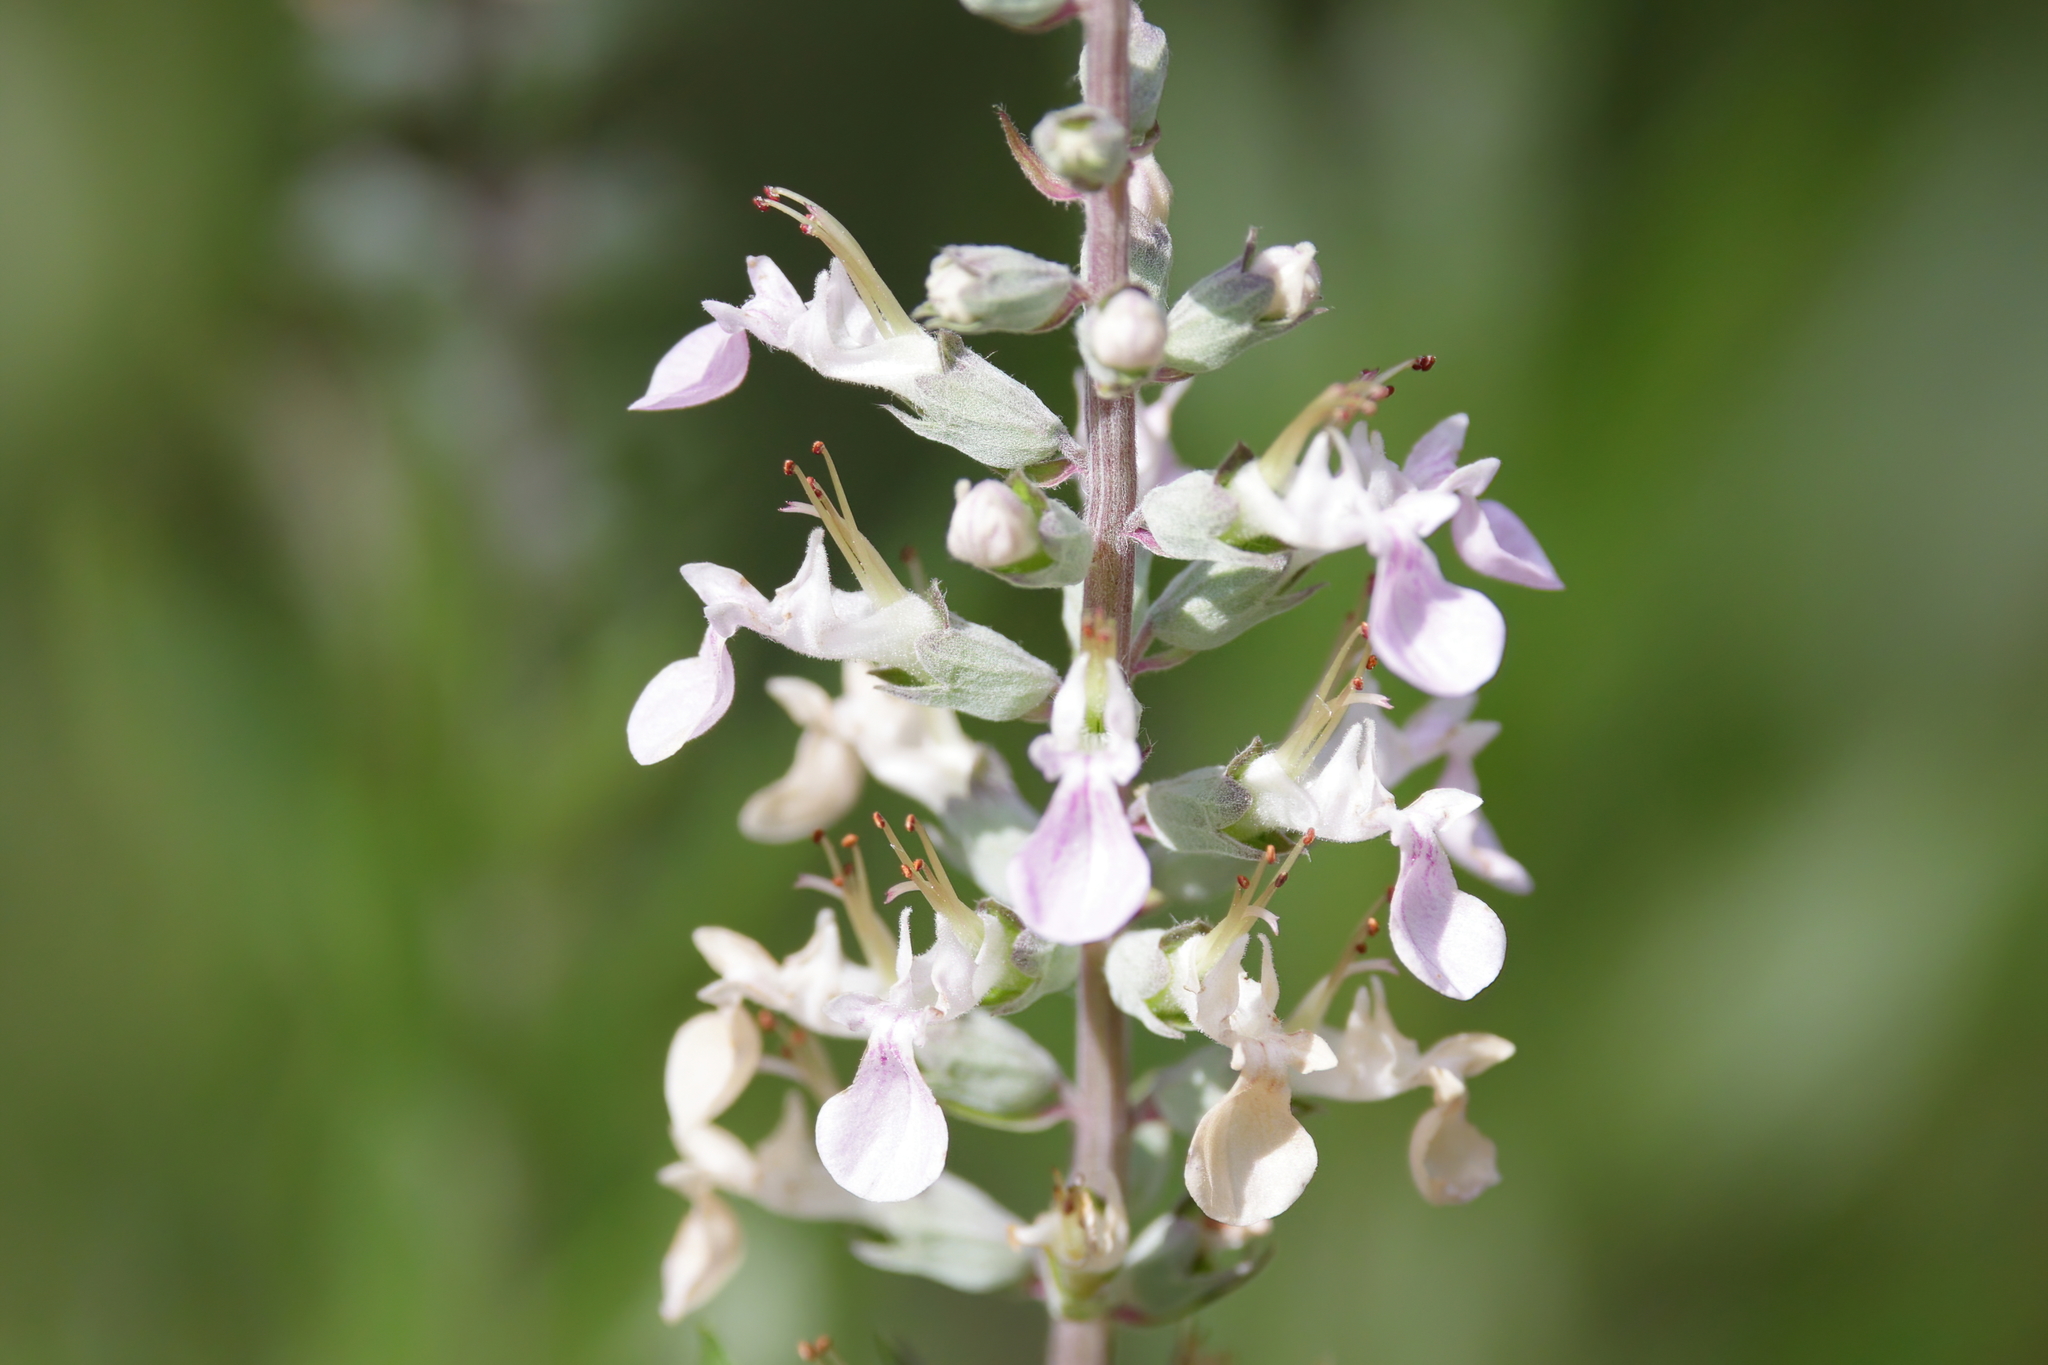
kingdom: Plantae
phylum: Tracheophyta
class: Magnoliopsida
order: Lamiales
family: Lamiaceae
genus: Teucrium
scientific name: Teucrium canadense
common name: American germander
